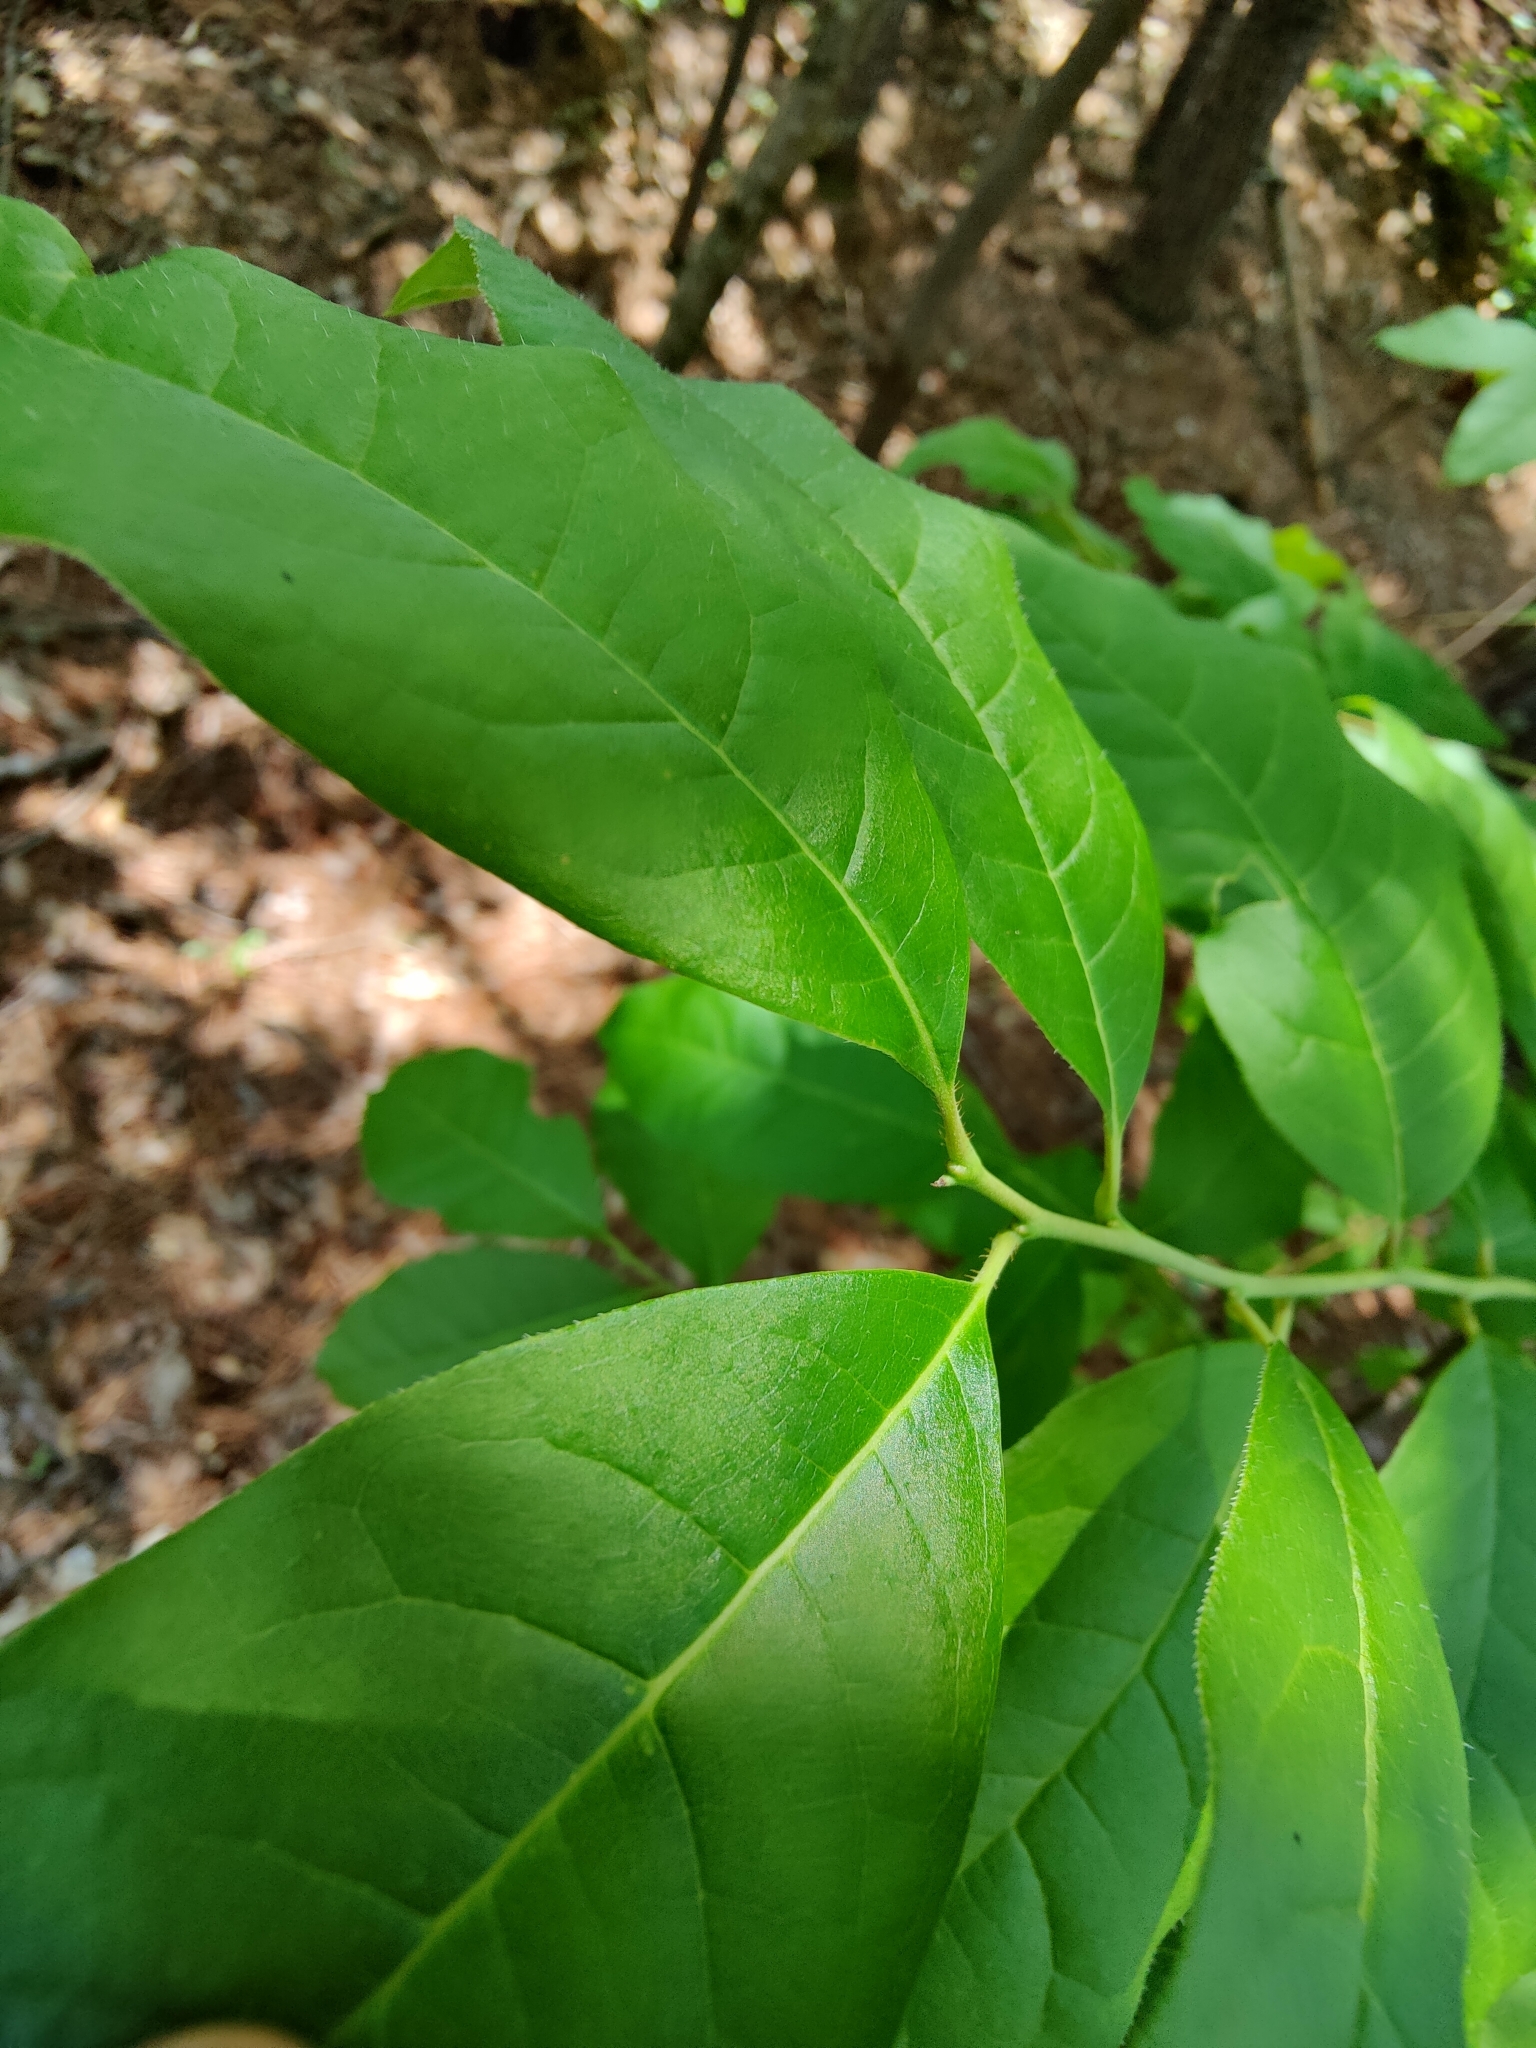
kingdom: Plantae
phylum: Tracheophyta
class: Magnoliopsida
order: Ericales
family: Ericaceae
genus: Oxydendrum
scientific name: Oxydendrum arboreum
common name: Sourwood
